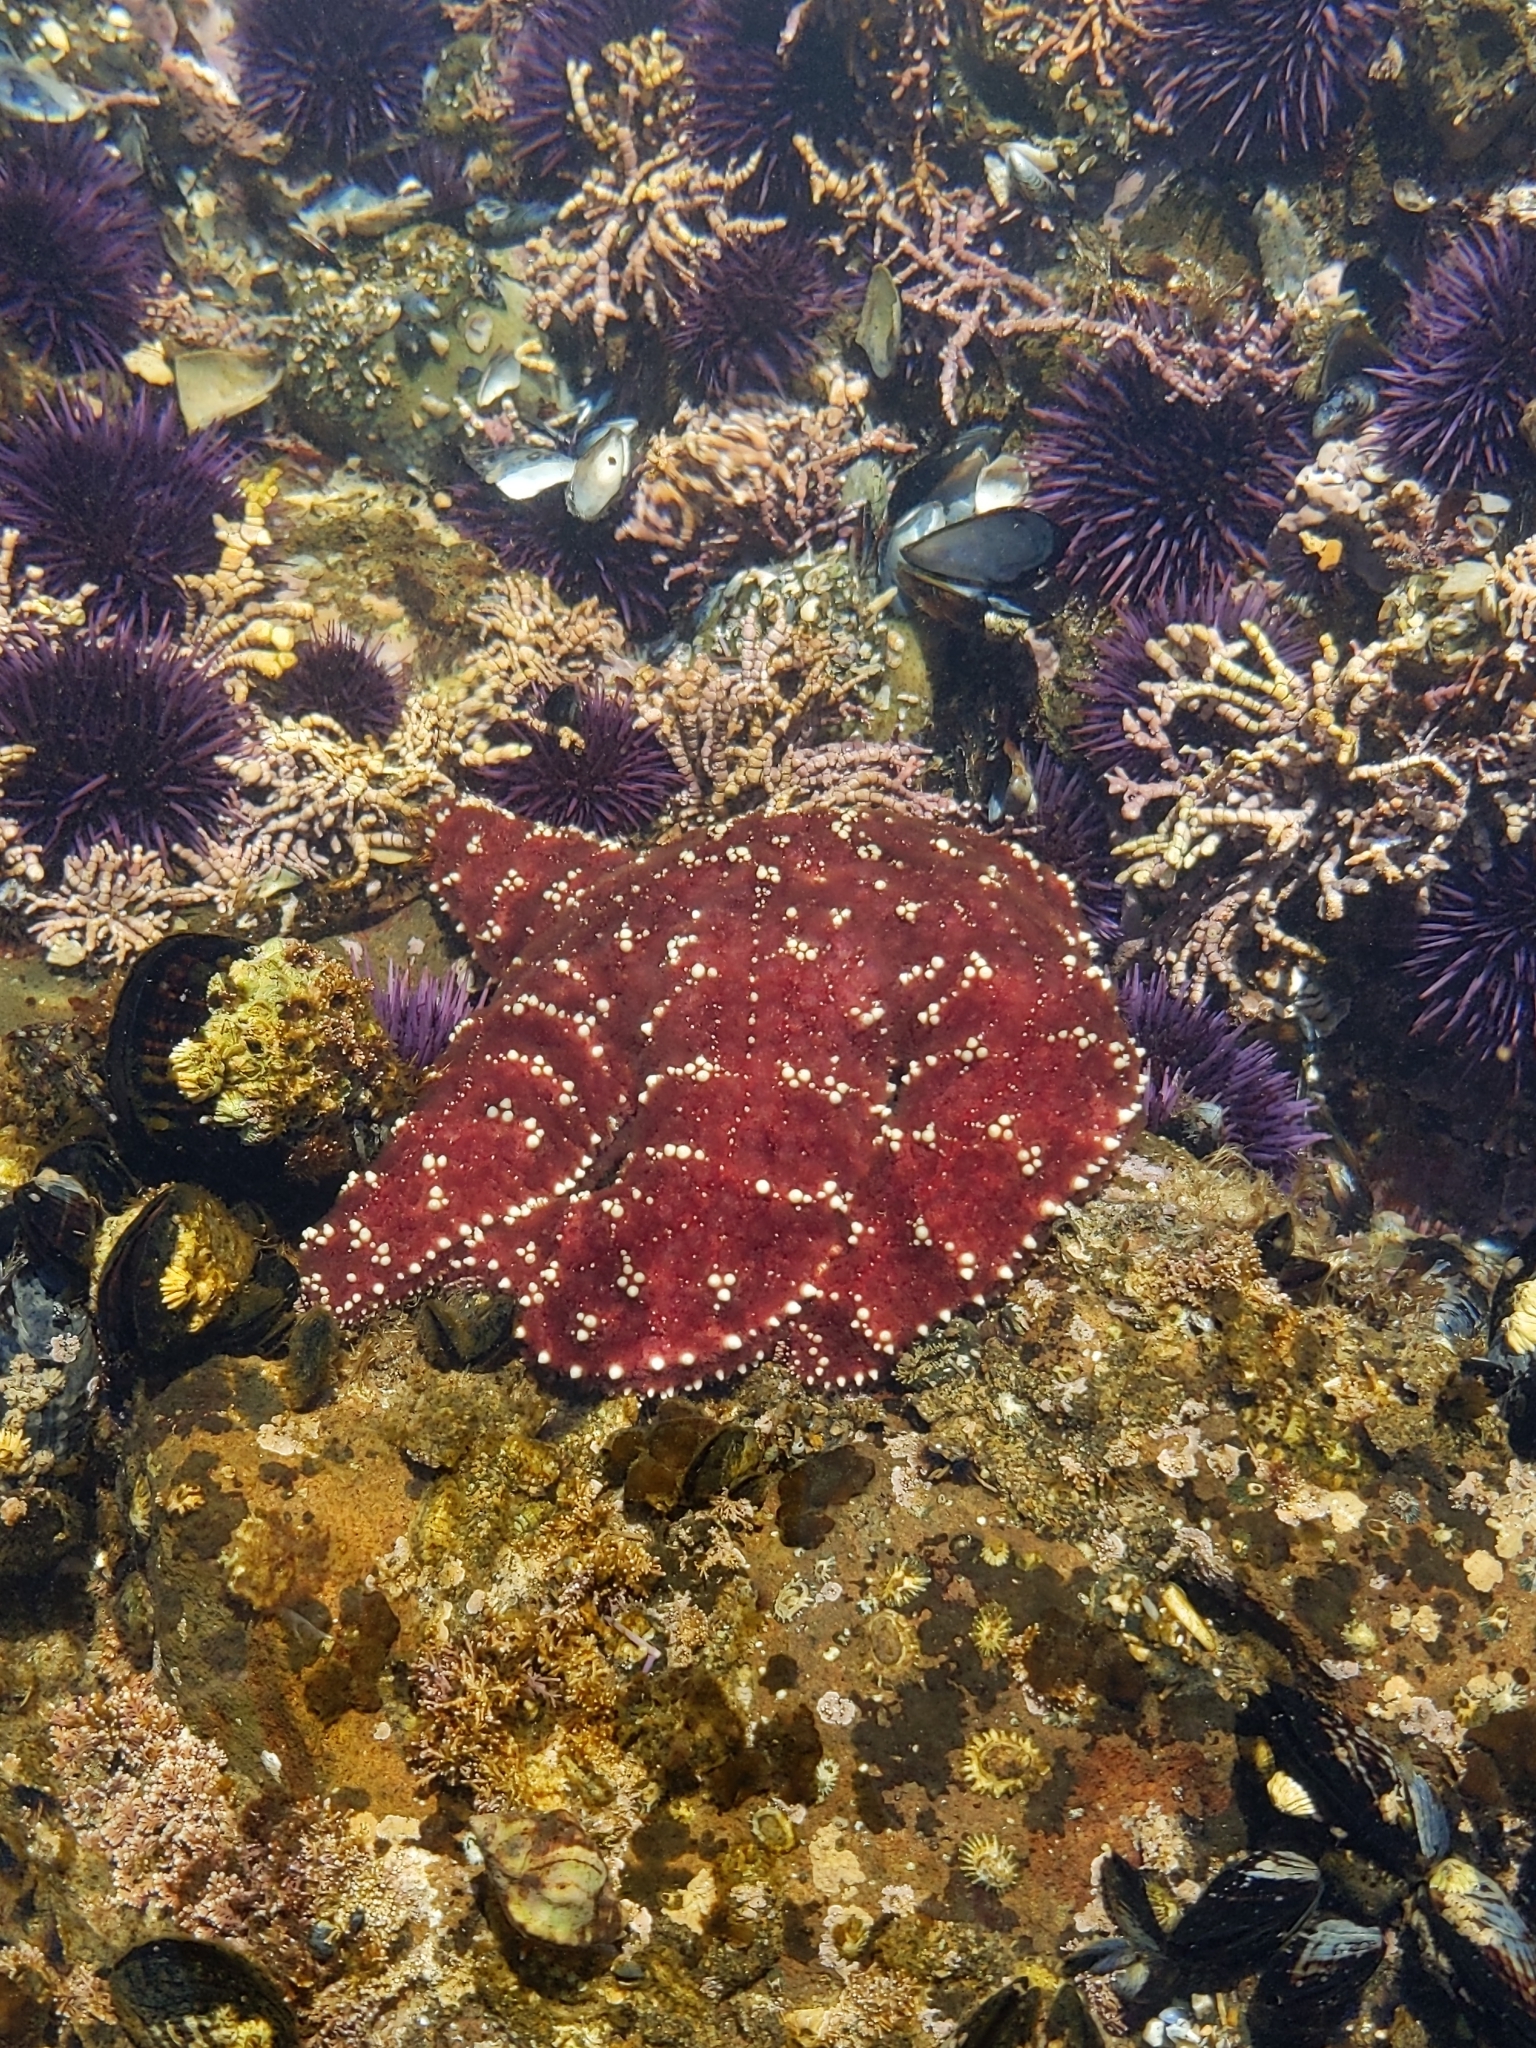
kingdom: Animalia
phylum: Echinodermata
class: Asteroidea
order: Forcipulatida
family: Asteriidae
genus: Pisaster
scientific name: Pisaster ochraceus
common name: Ochre stars
